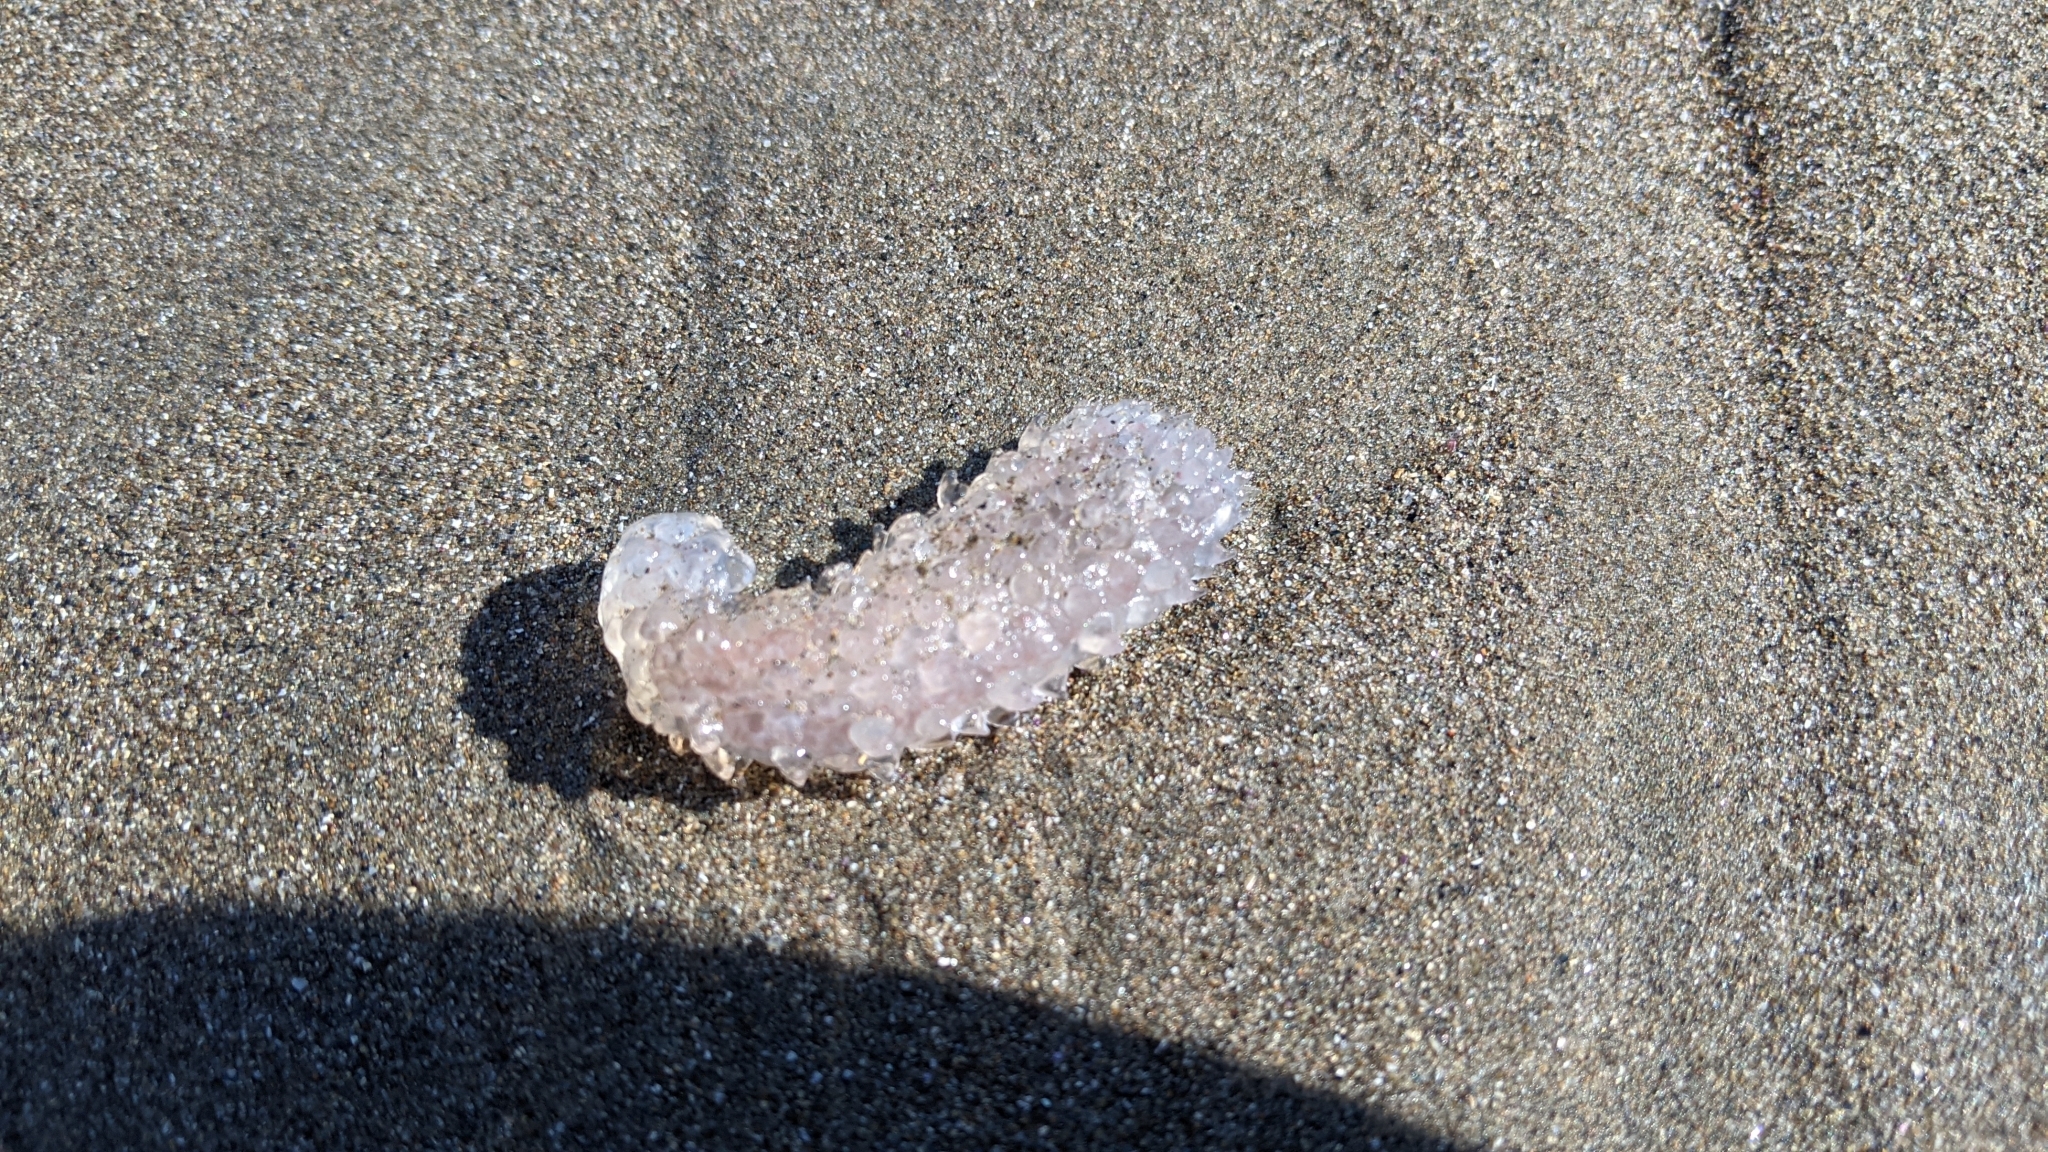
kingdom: Animalia
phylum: Chordata
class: Thaliacea
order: Pyrosomatida
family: Pyrosomatidae
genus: Pyrosoma
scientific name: Pyrosoma atlanticum
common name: Atlantic pyrosomes
